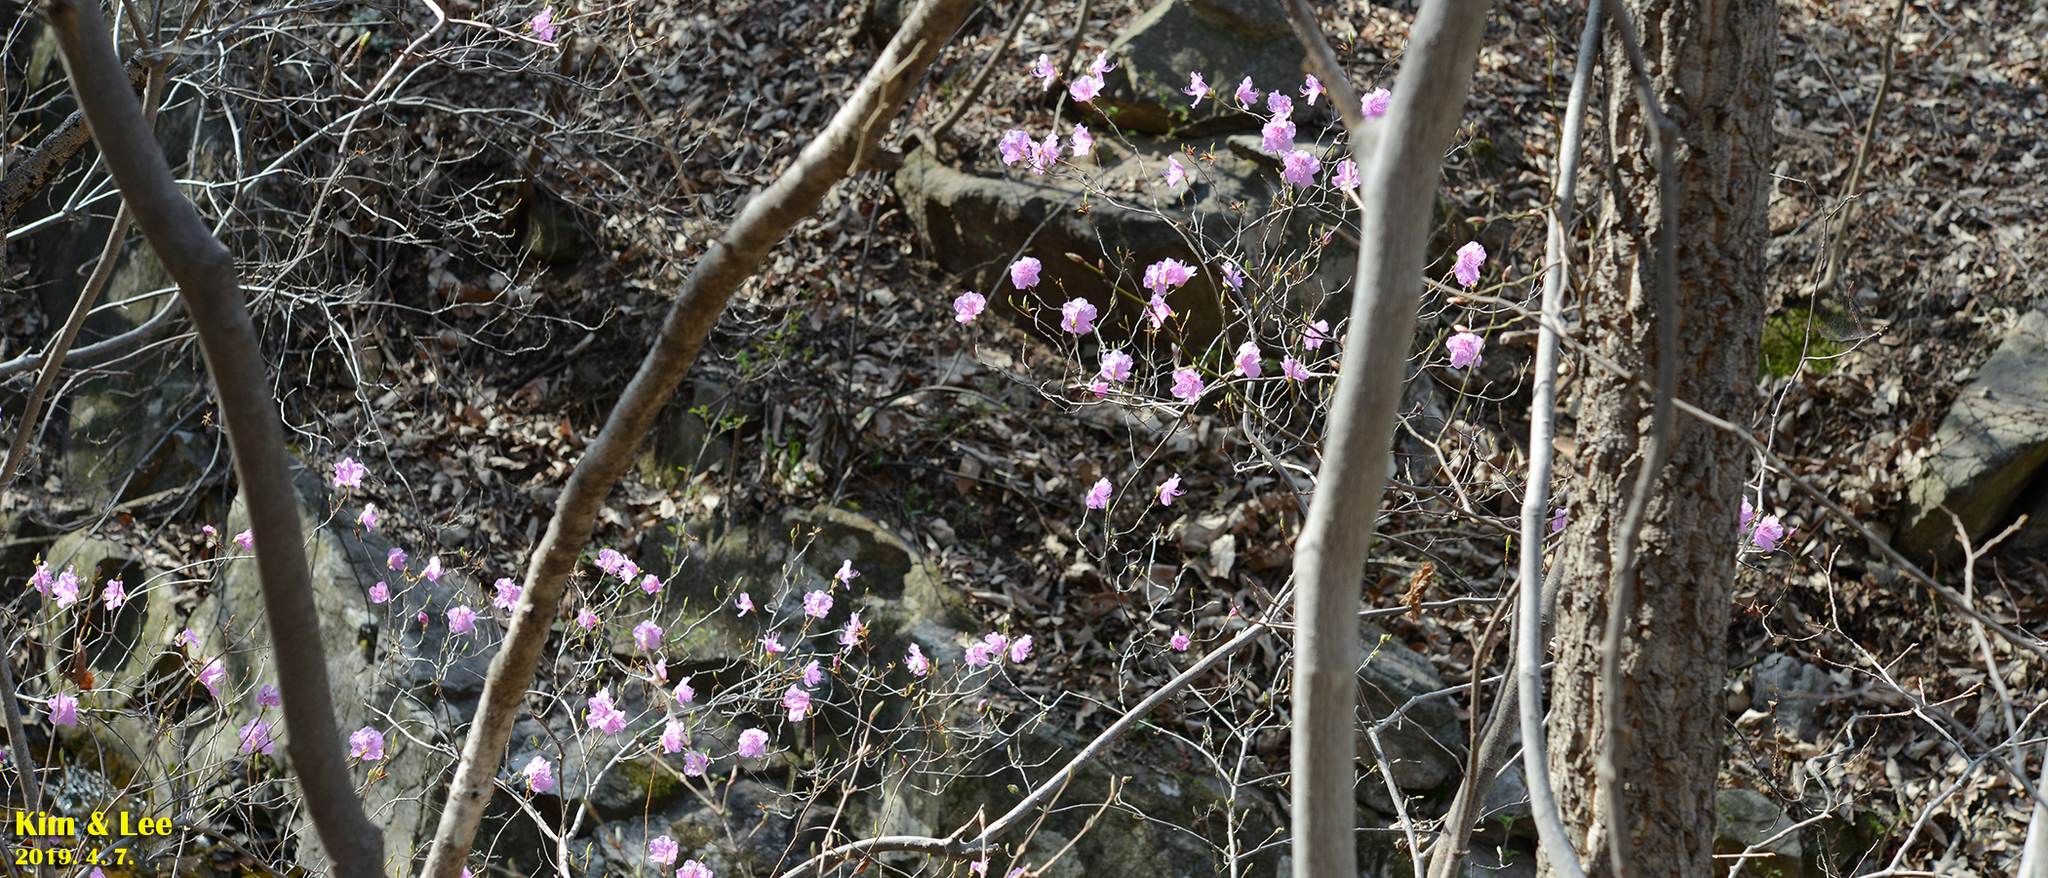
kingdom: Plantae
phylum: Tracheophyta
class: Magnoliopsida
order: Ericales
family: Ericaceae
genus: Rhododendron
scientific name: Rhododendron mucronulatum
